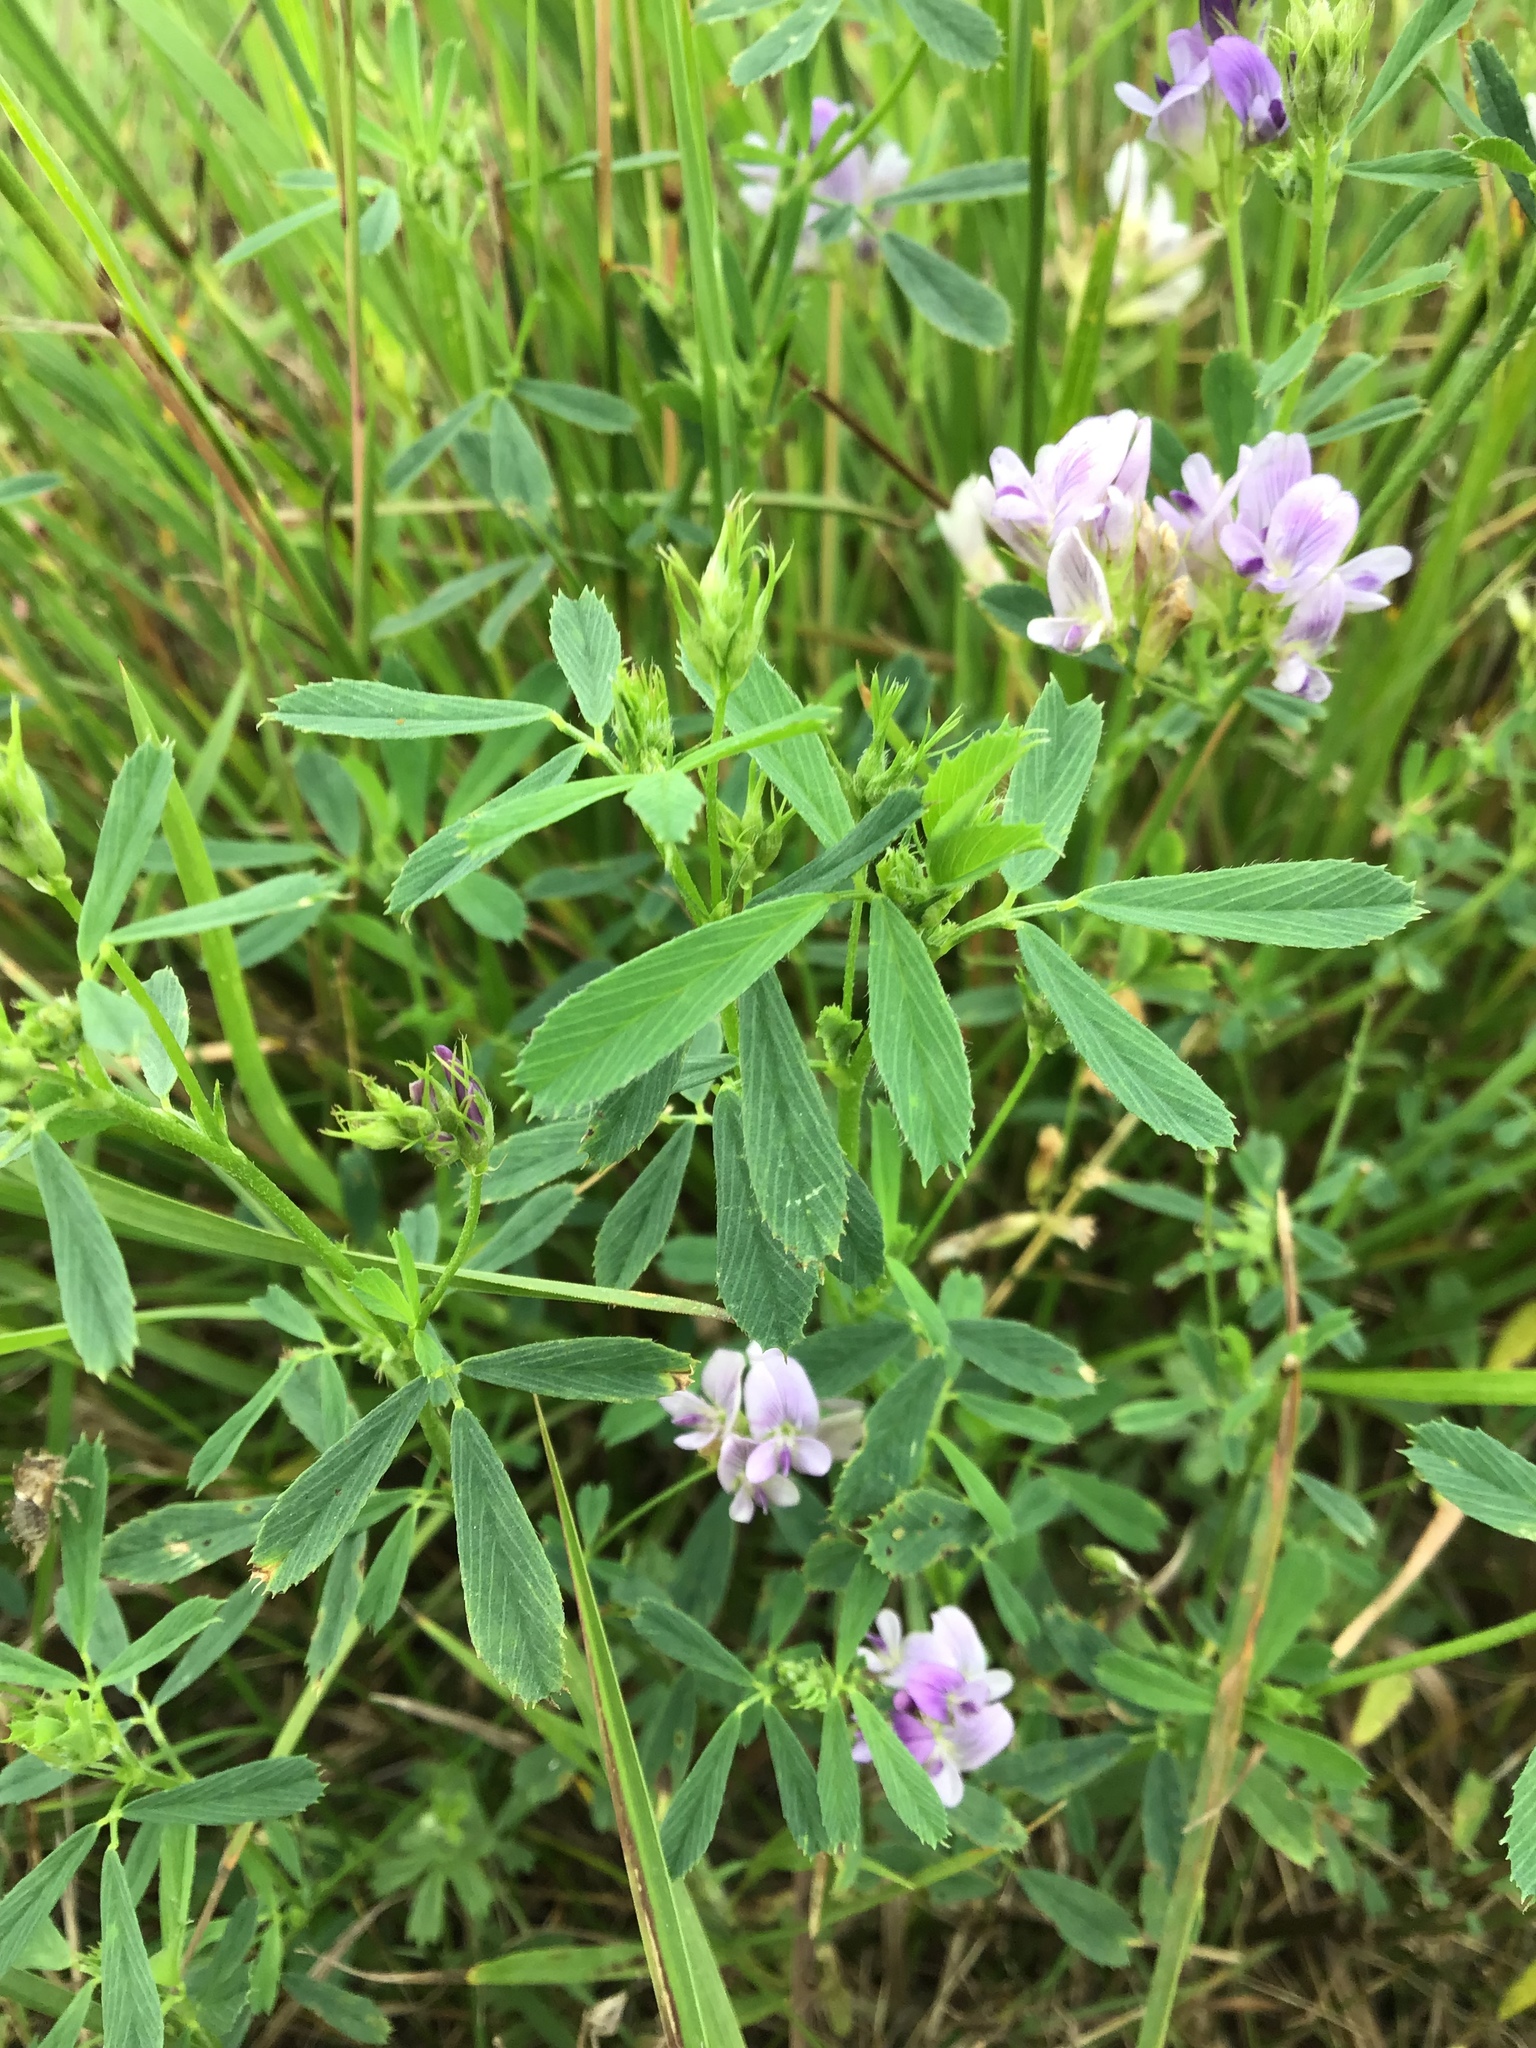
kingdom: Plantae
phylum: Tracheophyta
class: Magnoliopsida
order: Fabales
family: Fabaceae
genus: Medicago
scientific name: Medicago sativa
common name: Alfalfa
